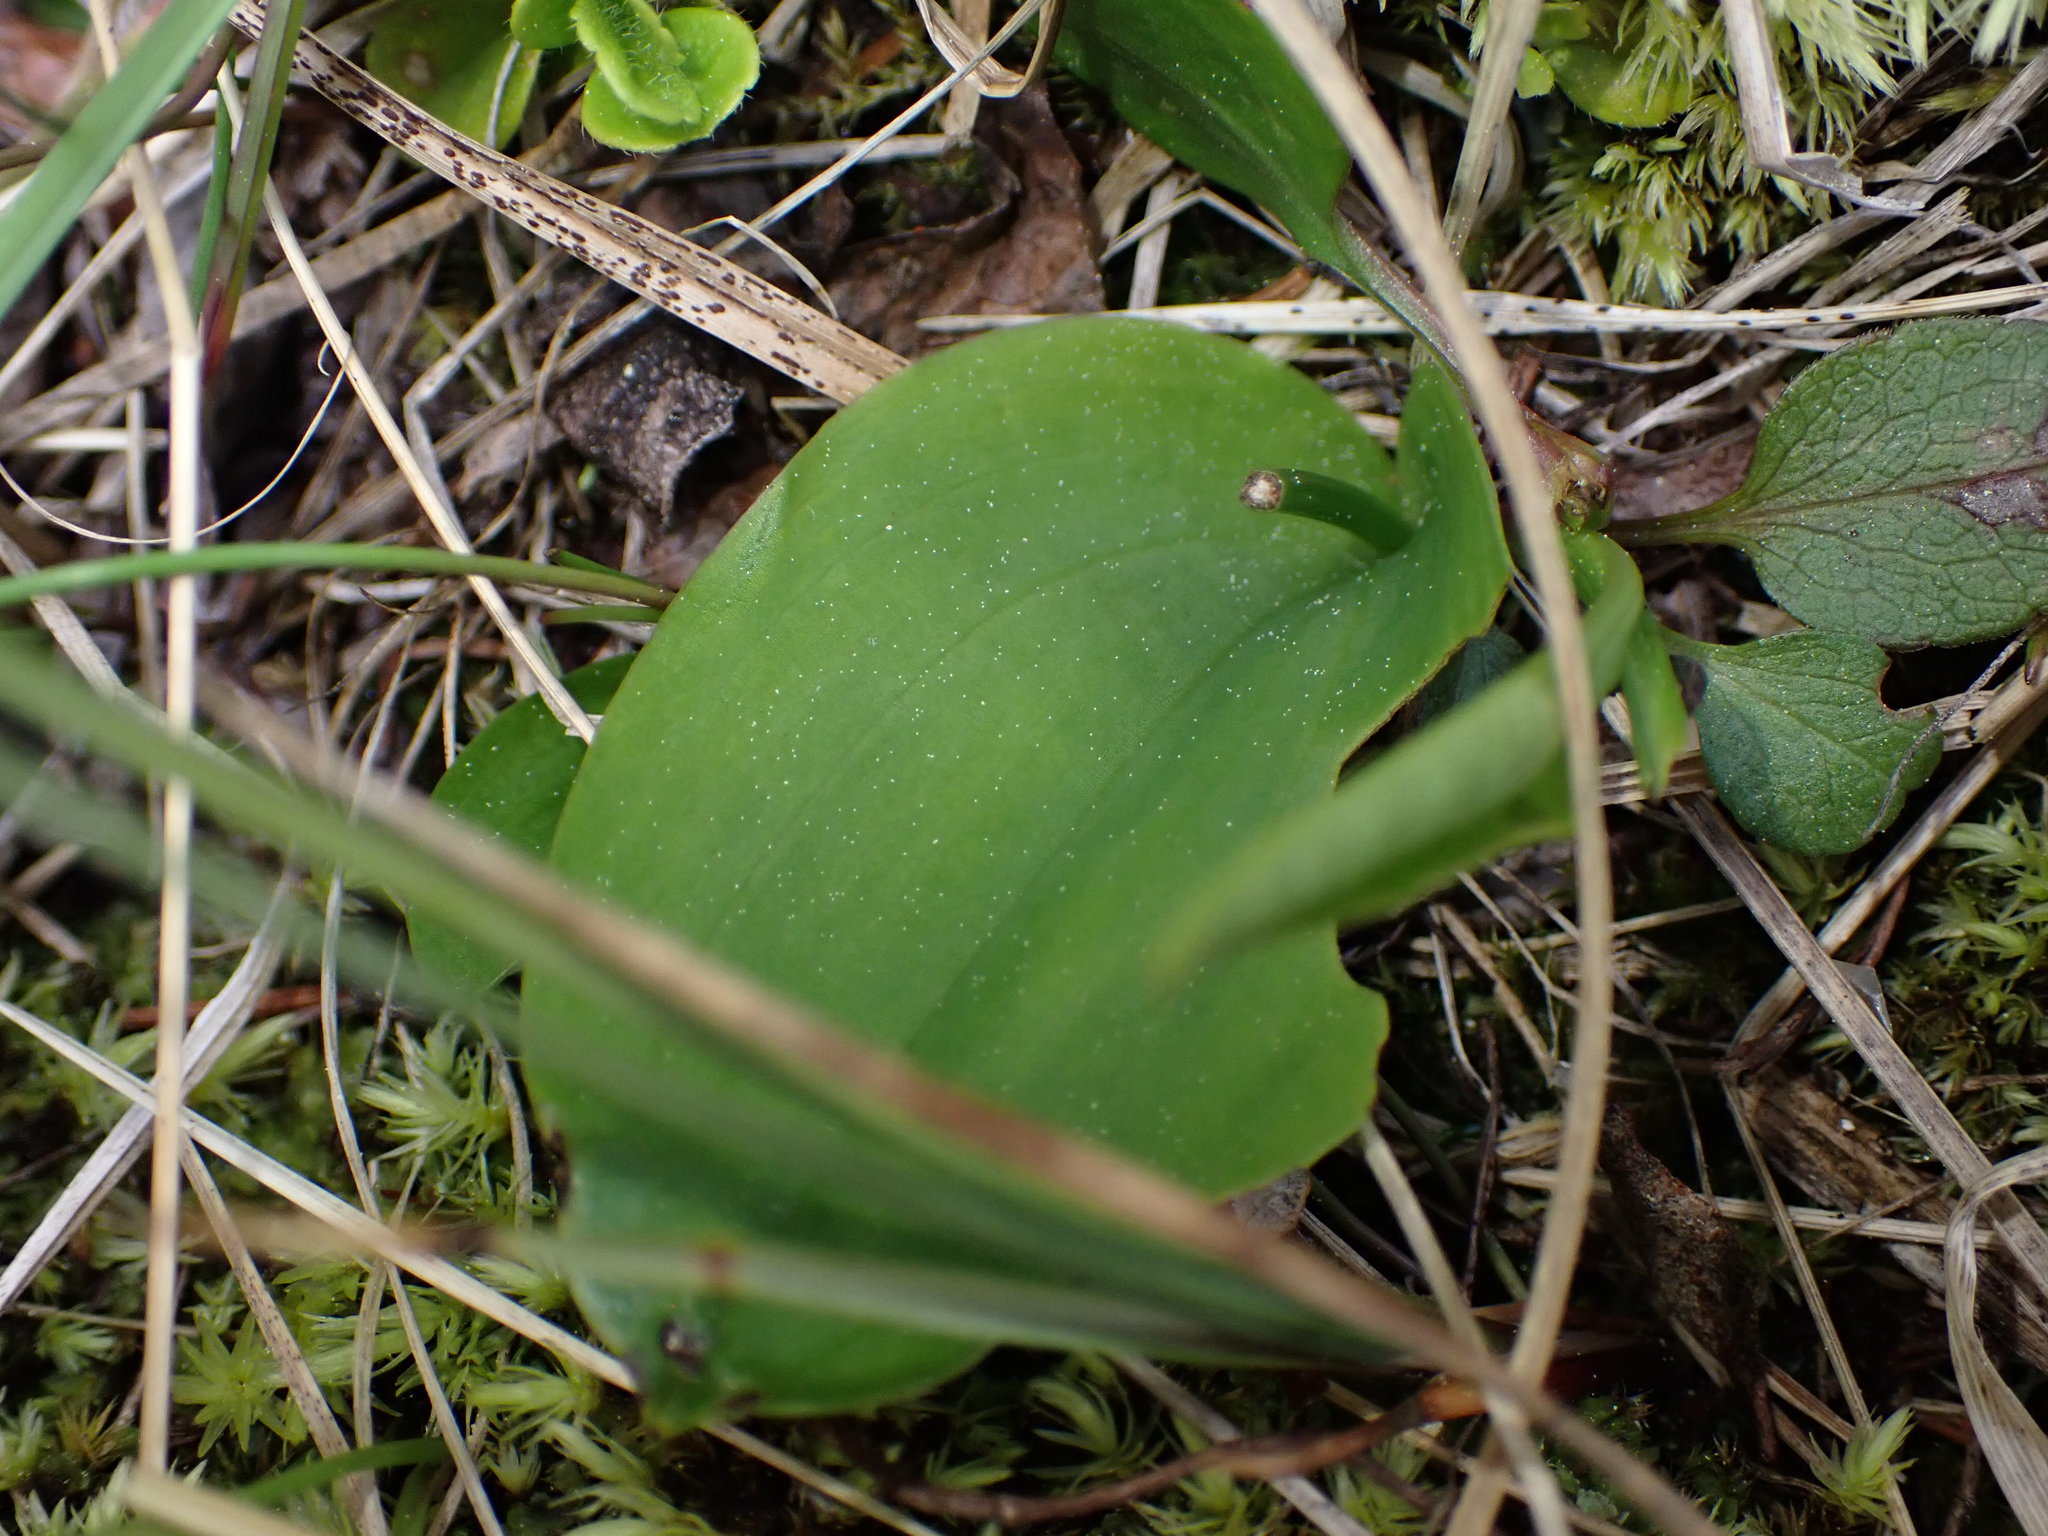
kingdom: Plantae
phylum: Tracheophyta
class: Liliopsida
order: Asparagales
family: Orchidaceae
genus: Galearis
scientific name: Galearis rotundifolia
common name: One-leaved orchis
